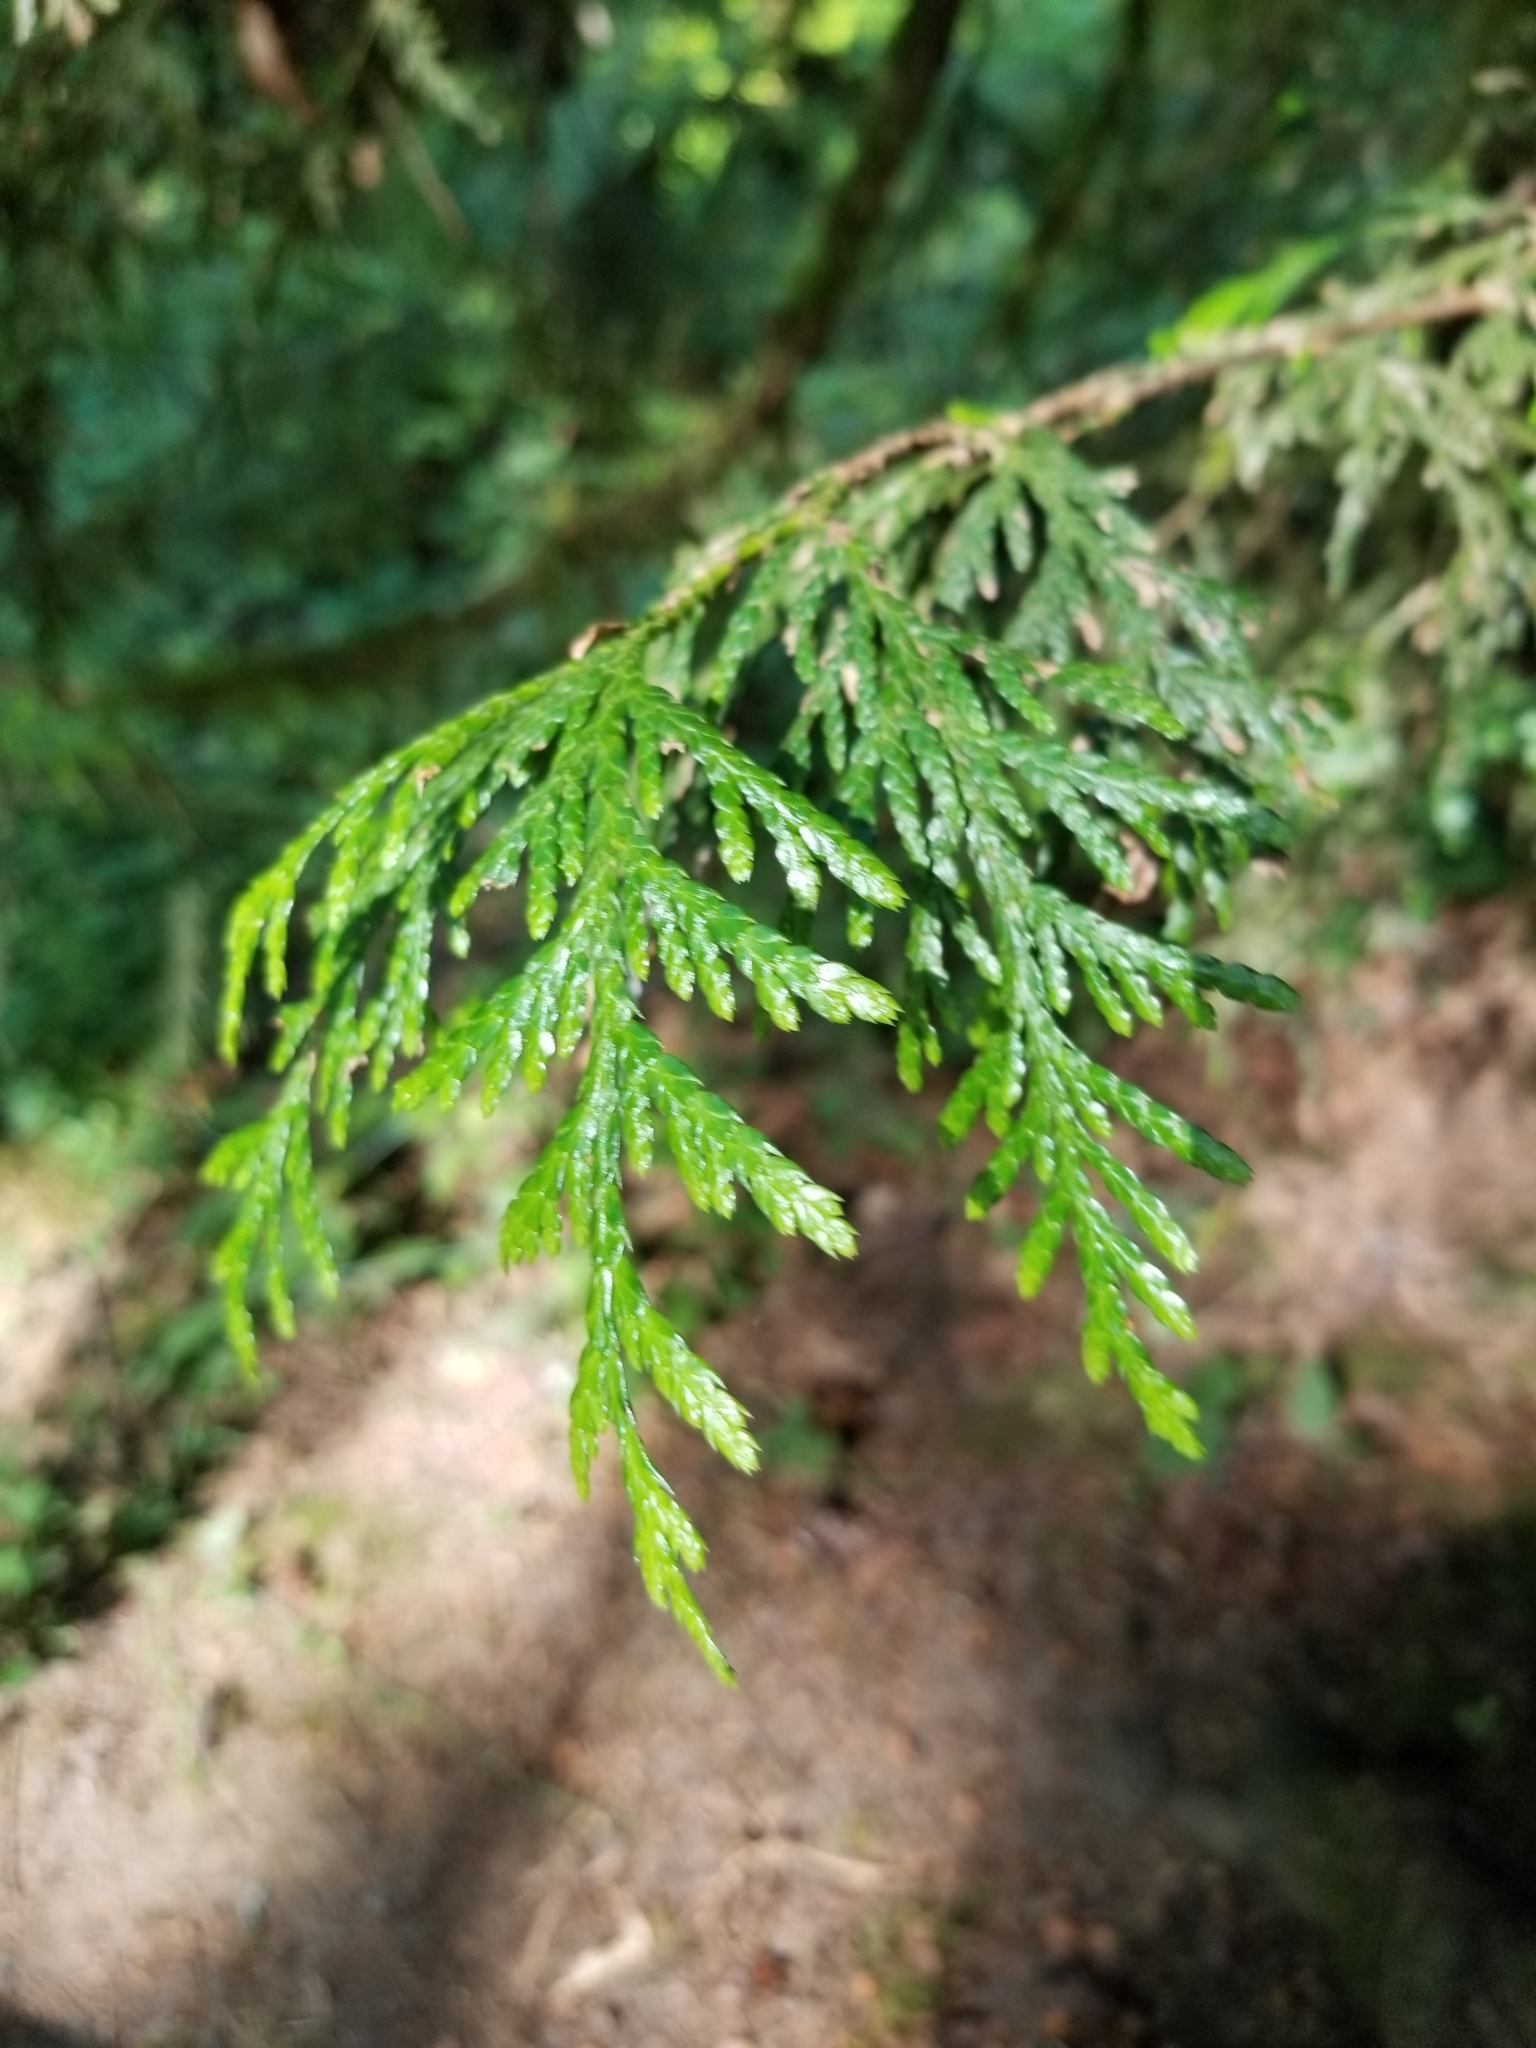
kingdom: Plantae
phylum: Tracheophyta
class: Pinopsida
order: Pinales
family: Cupressaceae
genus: Thuja
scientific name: Thuja plicata
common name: Western red-cedar
